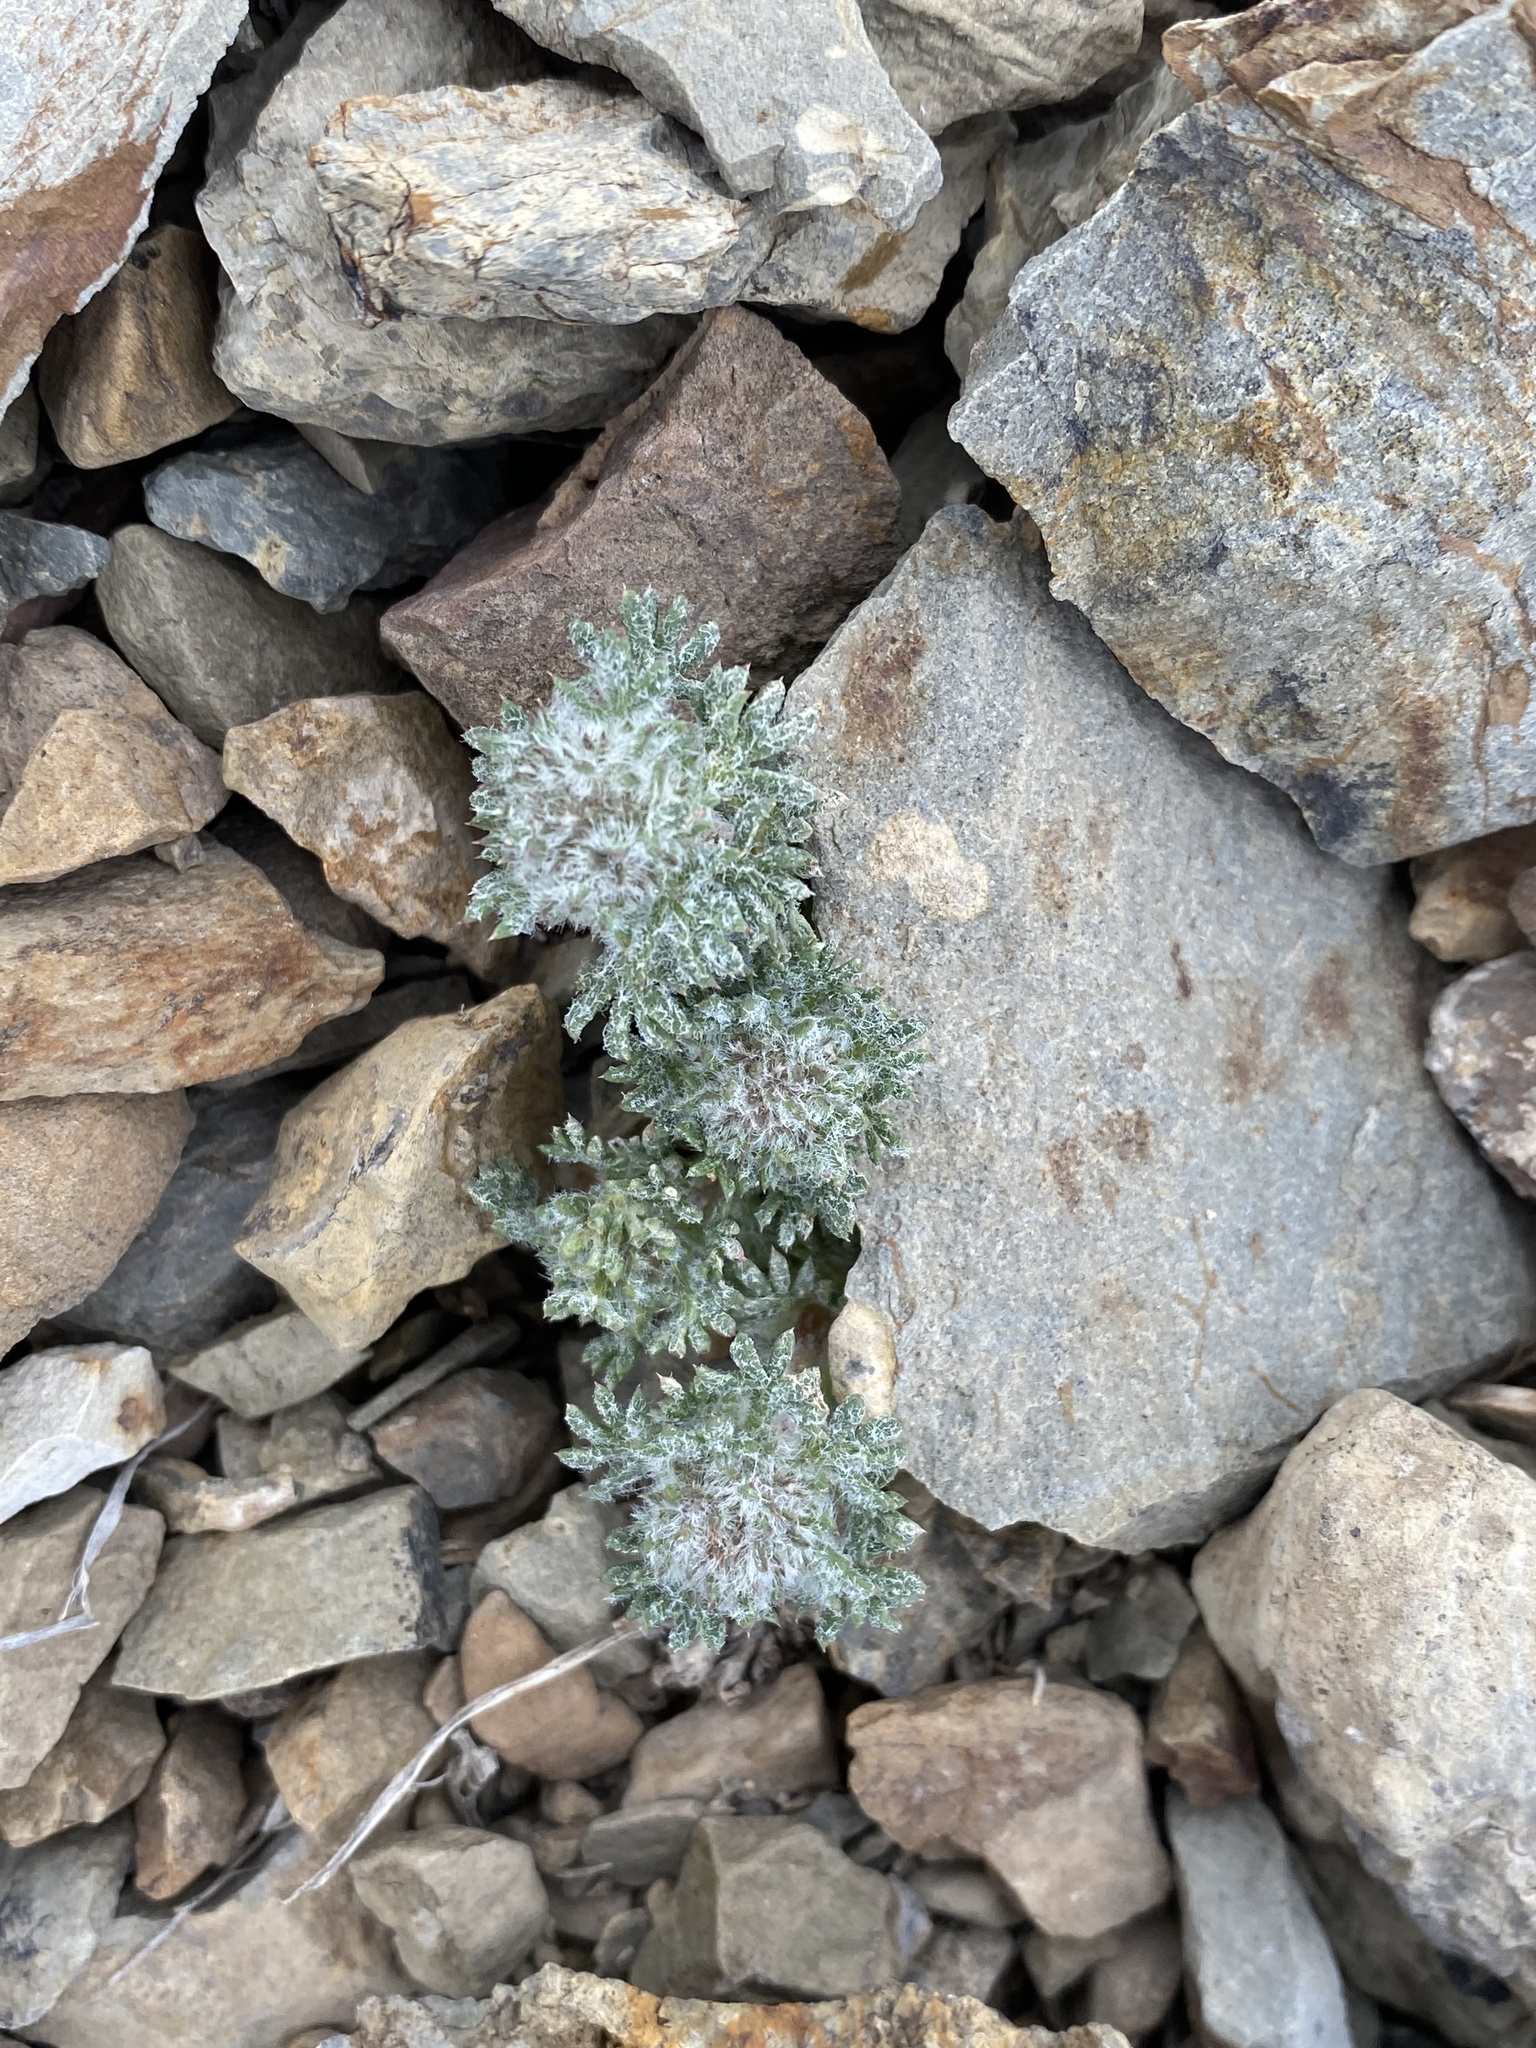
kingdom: Plantae
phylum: Tracheophyta
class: Magnoliopsida
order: Ericales
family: Polemoniaceae
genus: Ipomopsis
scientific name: Ipomopsis congesta
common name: Ball-head gilia
